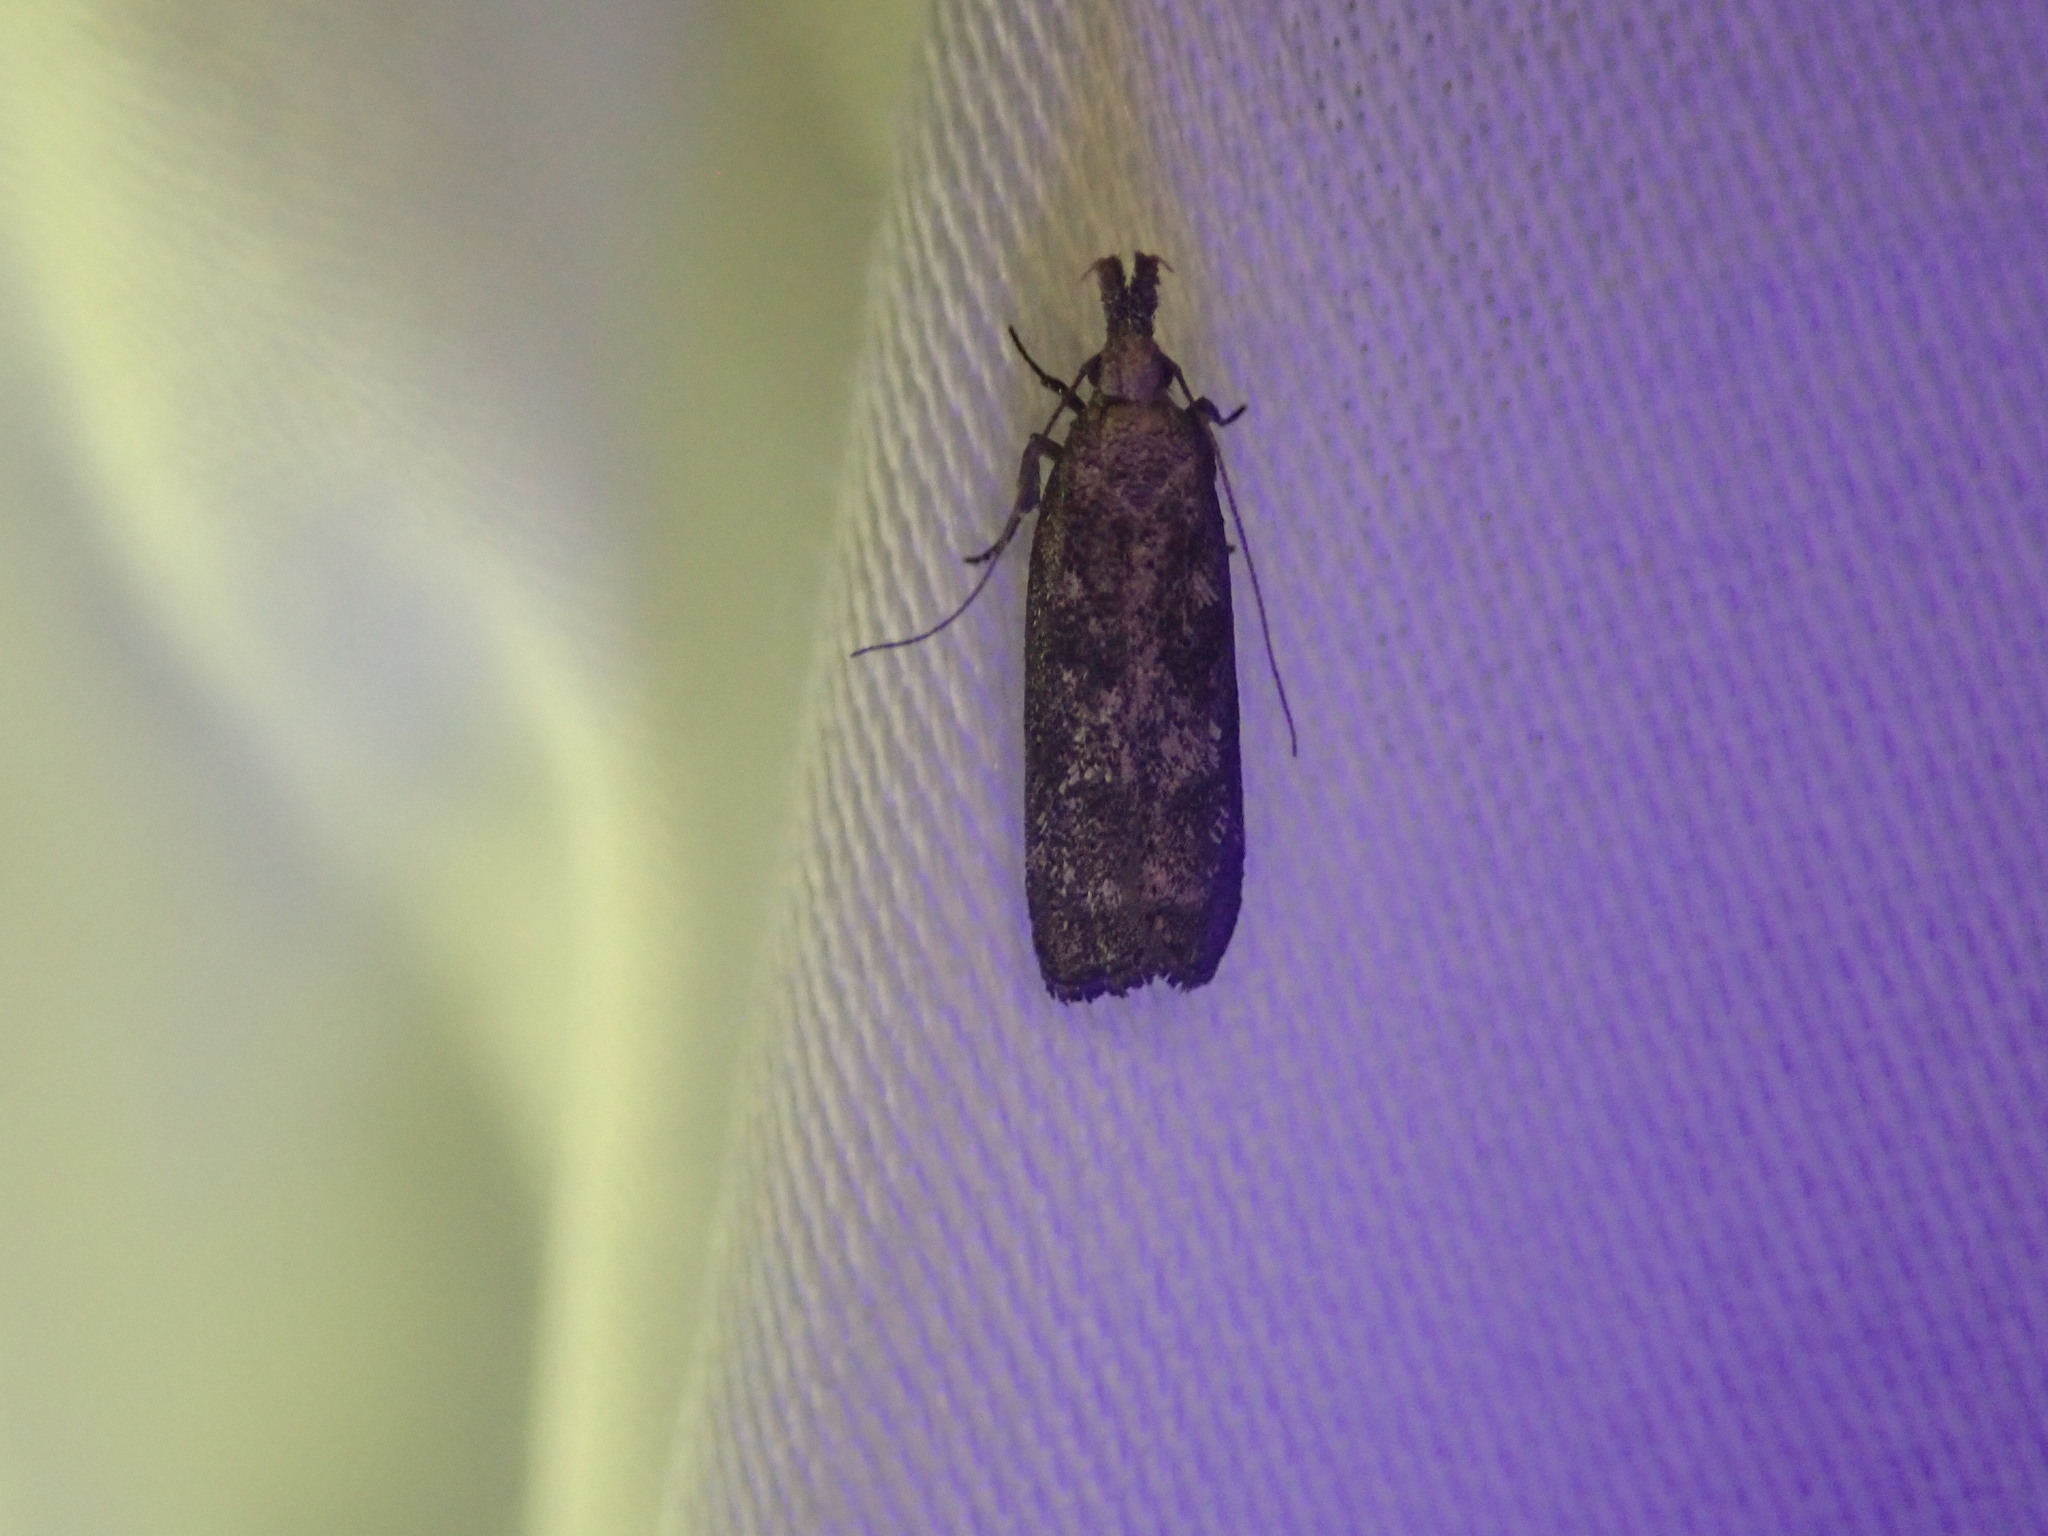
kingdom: Animalia
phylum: Arthropoda
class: Insecta
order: Lepidoptera
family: Gelechiidae
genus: Dichomeris
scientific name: Dichomeris inversella
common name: Inverse dichomeris moth
